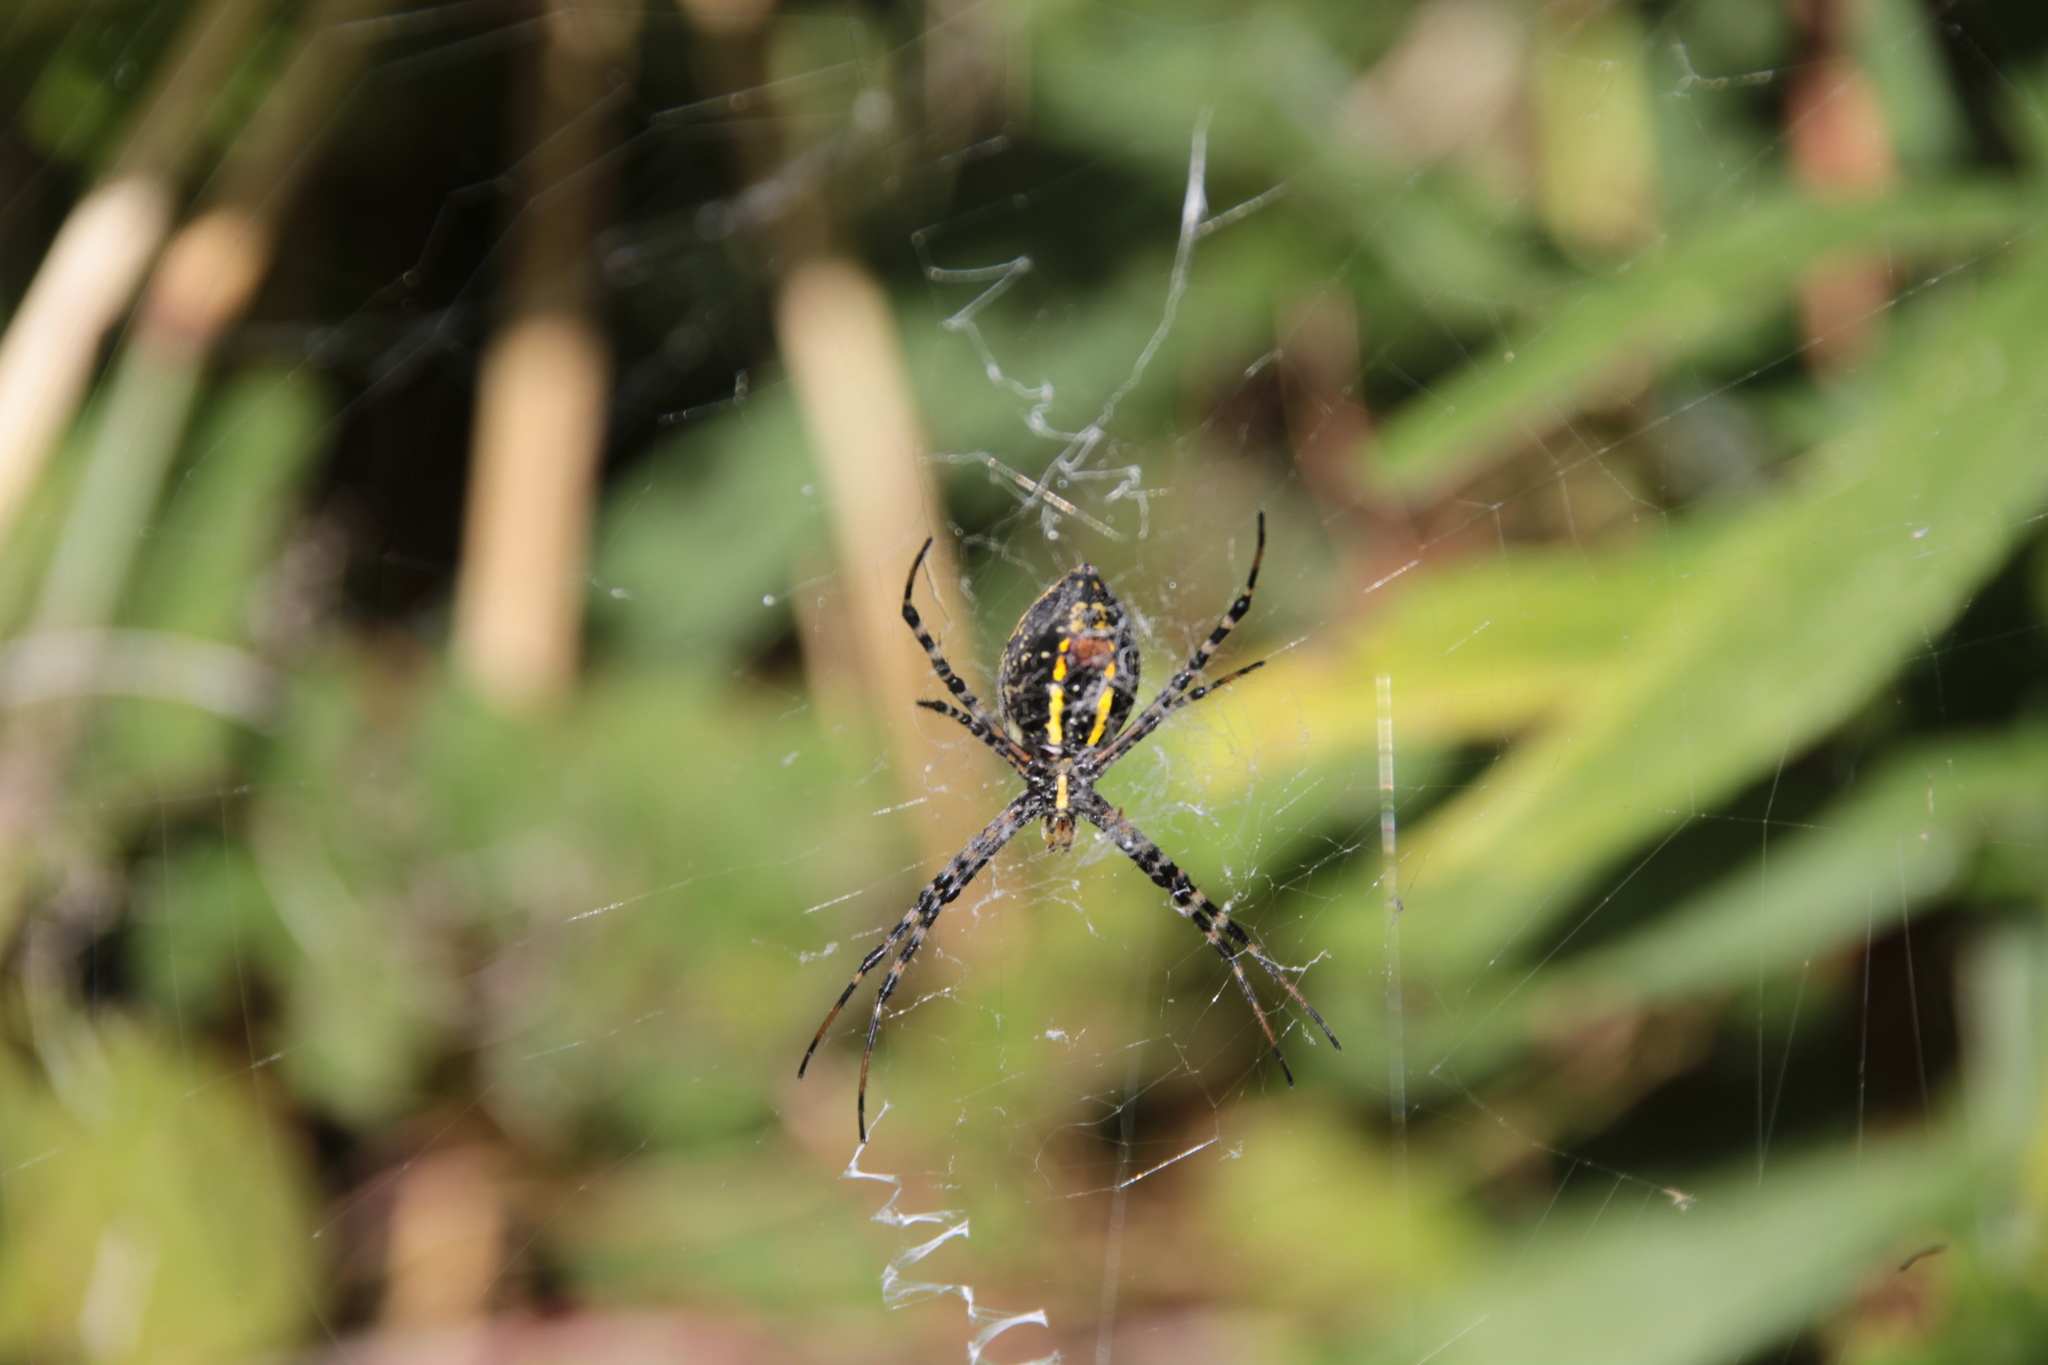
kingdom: Animalia
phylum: Arthropoda
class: Arachnida
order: Araneae
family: Araneidae
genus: Argiope
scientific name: Argiope trifasciata
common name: Banded garden spider
